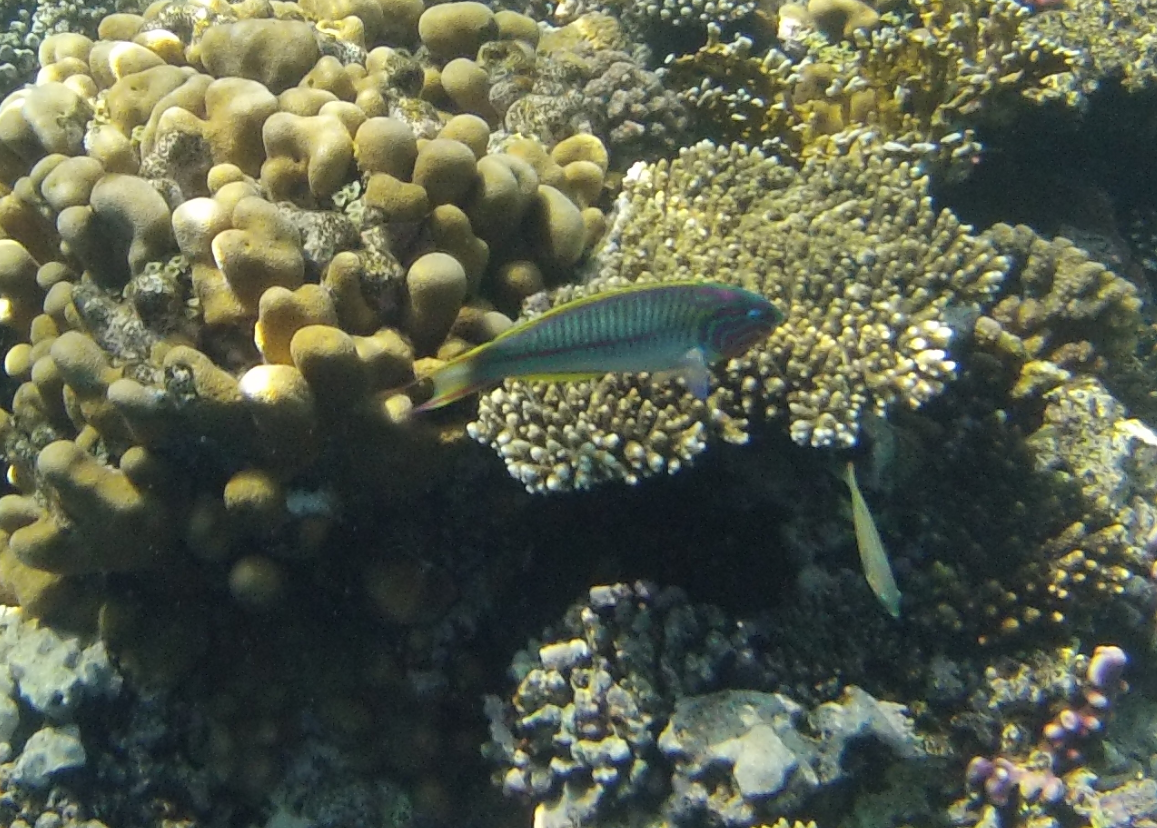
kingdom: Animalia
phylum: Chordata
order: Perciformes
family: Labridae
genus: Thalassoma
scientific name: Thalassoma rueppellii
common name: Klunzinger's wrasse
